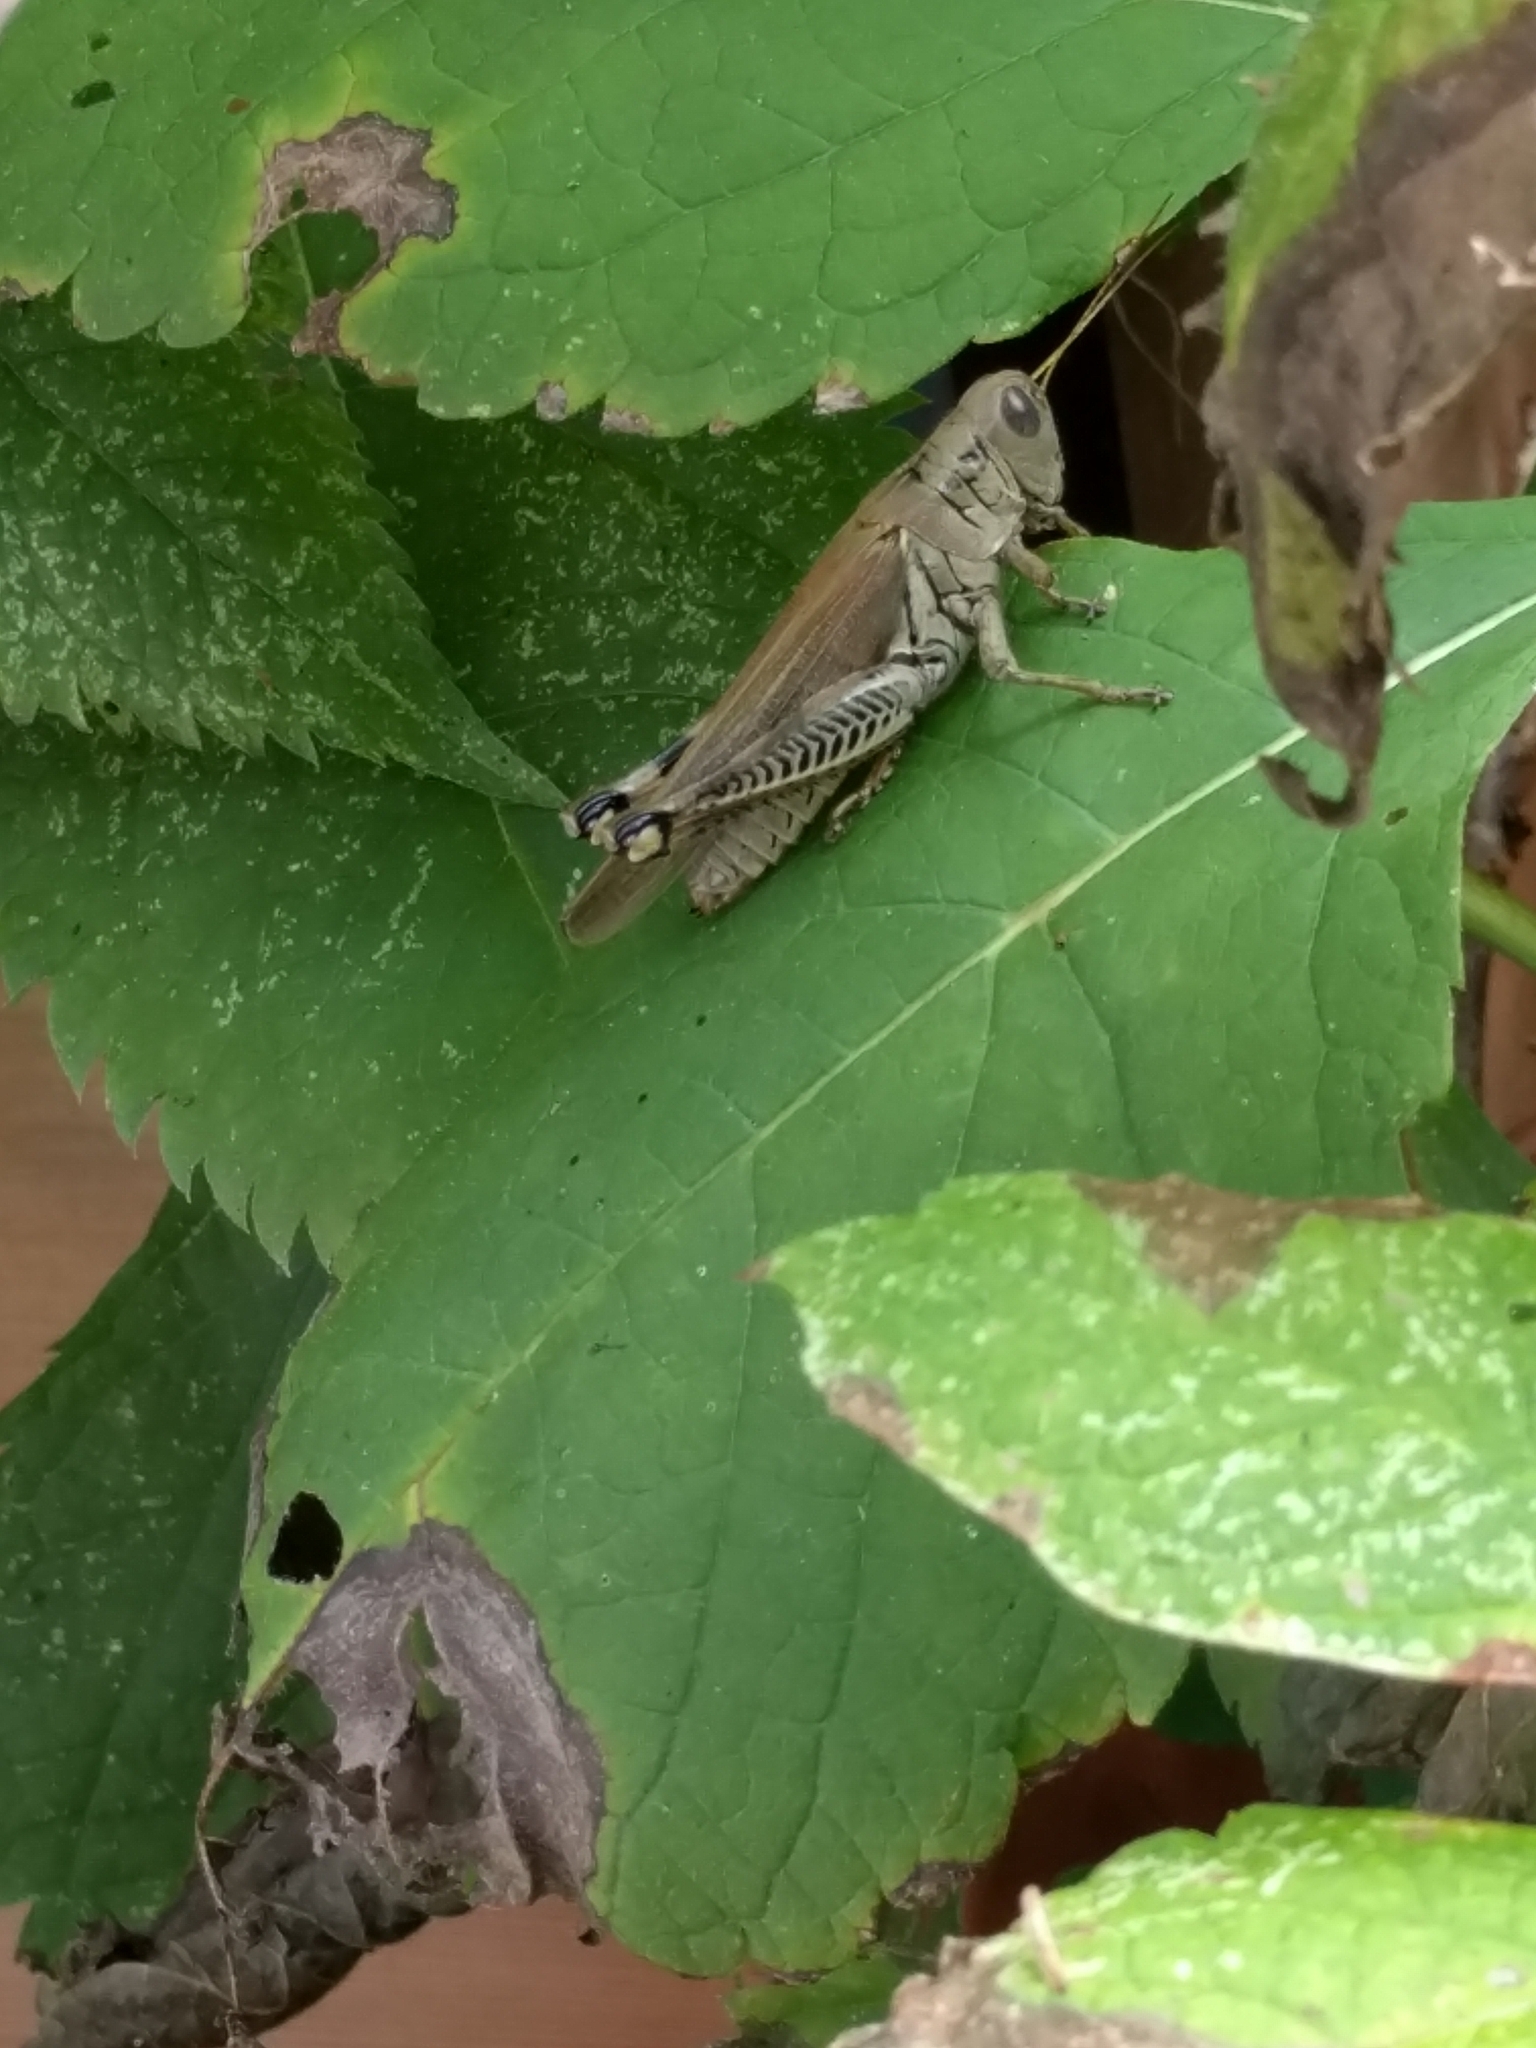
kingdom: Animalia
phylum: Arthropoda
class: Insecta
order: Orthoptera
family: Acrididae
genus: Melanoplus
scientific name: Melanoplus differentialis
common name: Differential grasshopper
